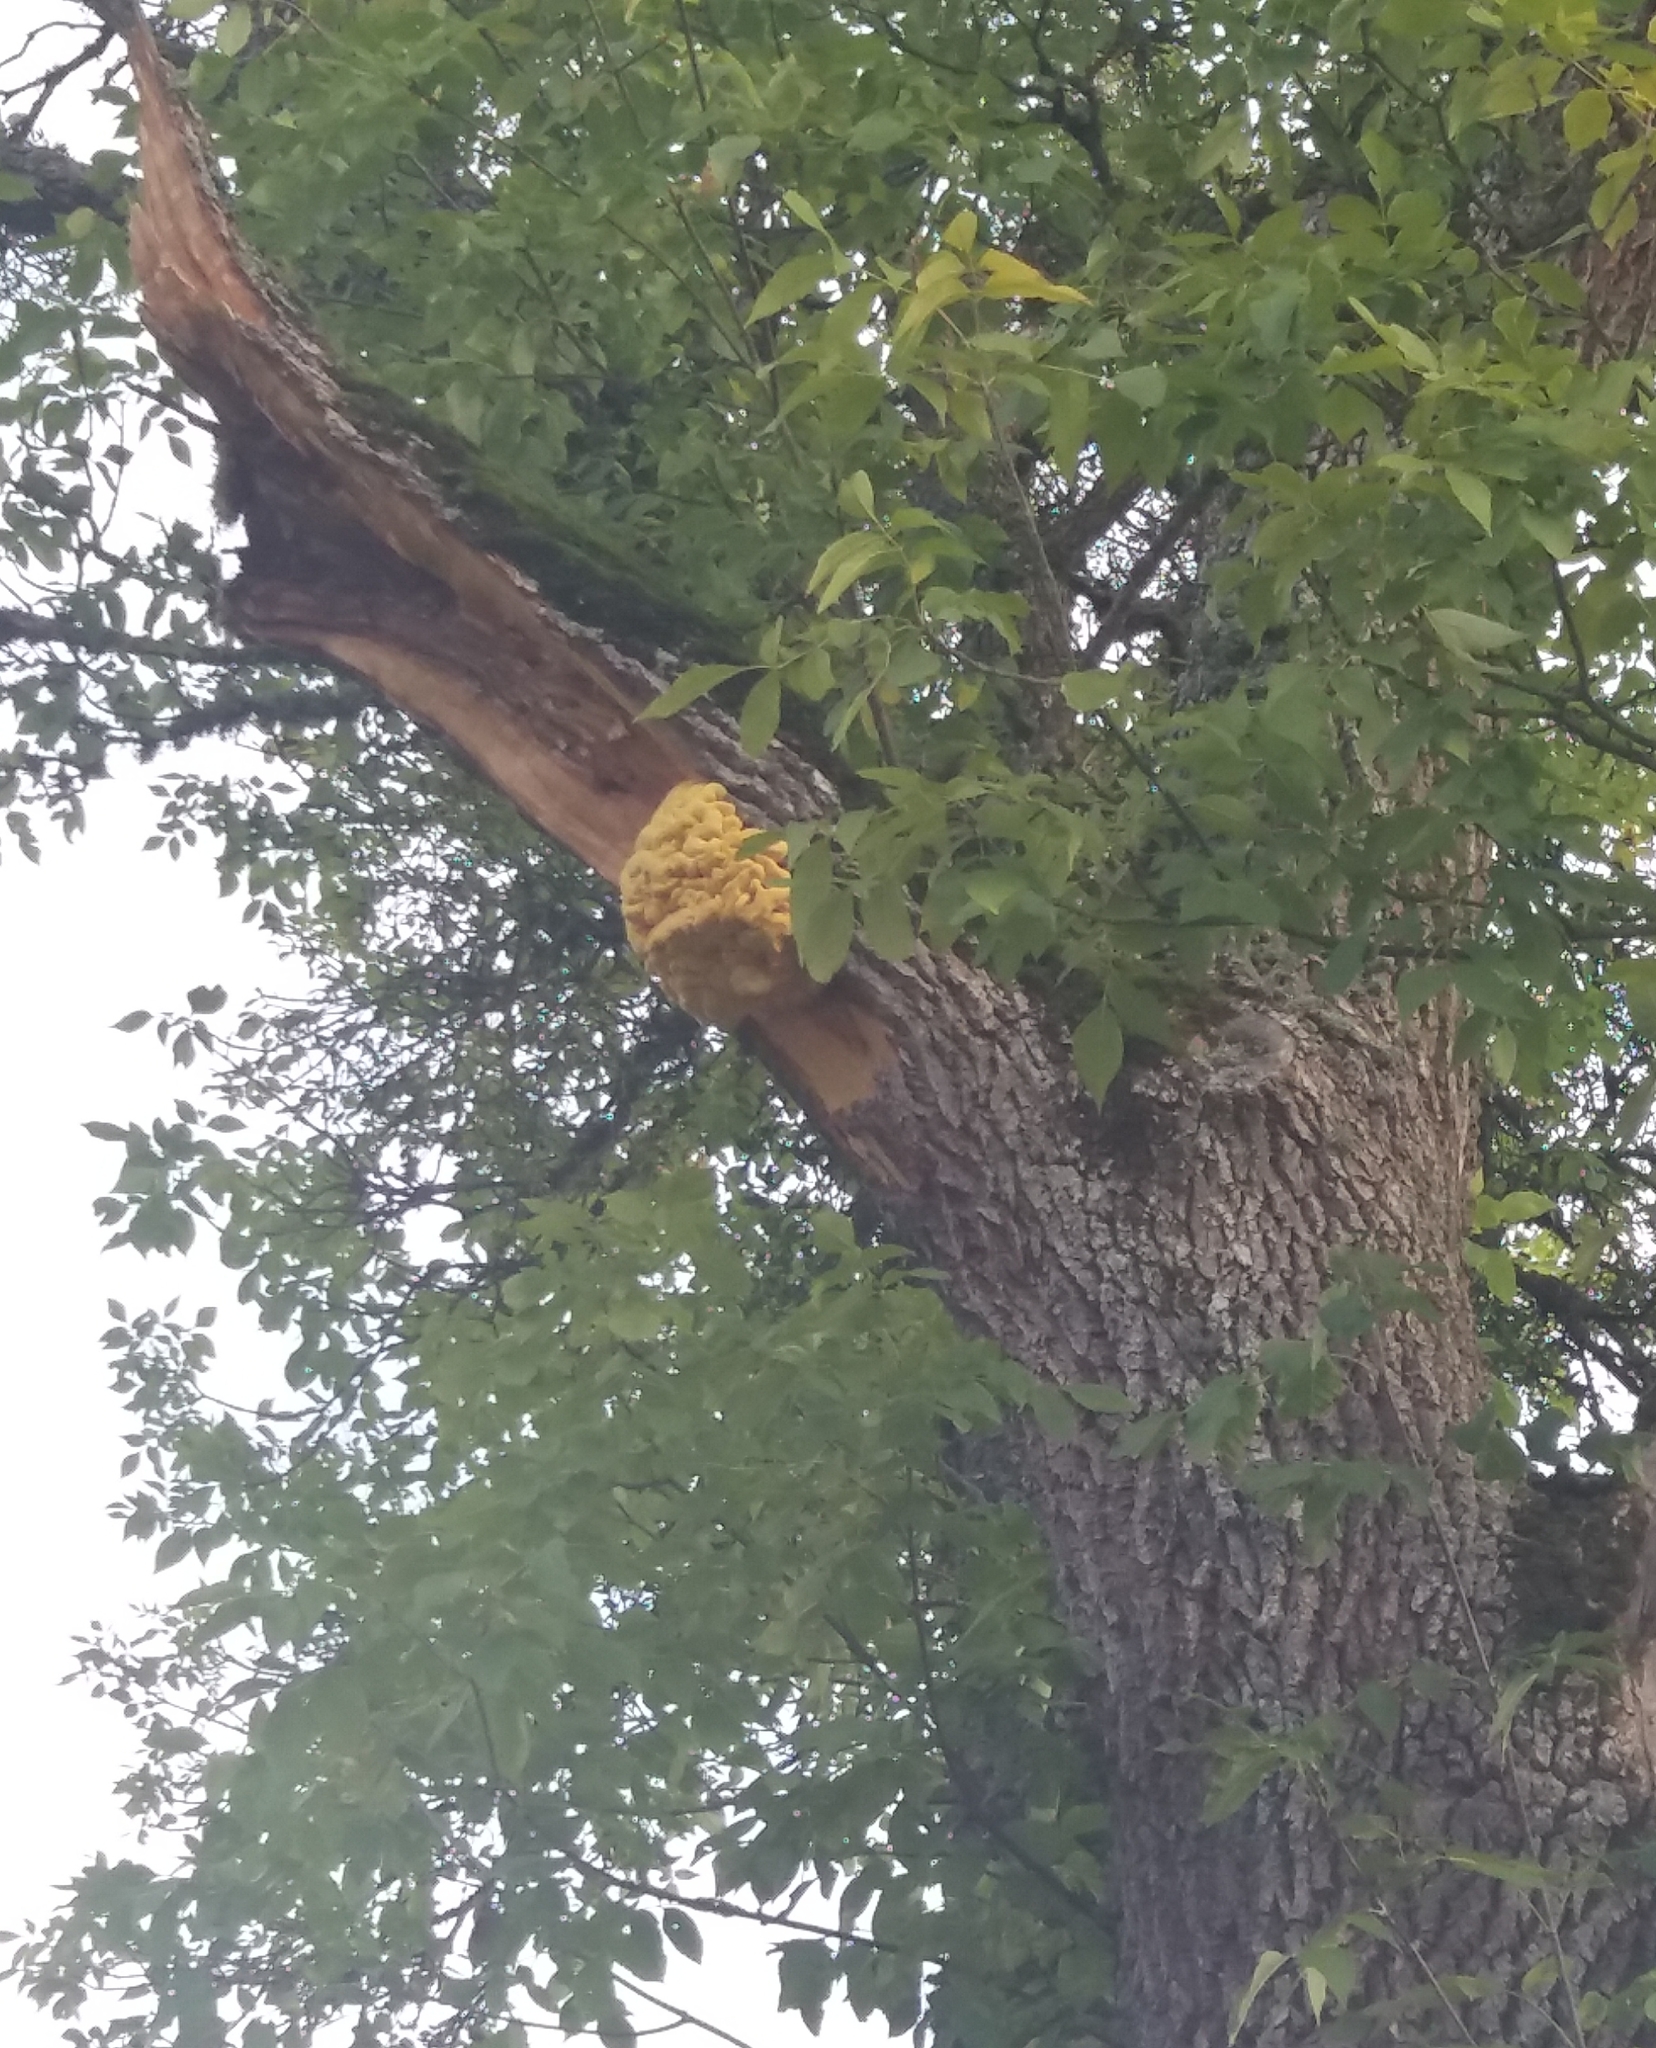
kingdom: Fungi
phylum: Basidiomycota
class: Agaricomycetes
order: Polyporales
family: Laetiporaceae
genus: Laetiporus
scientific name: Laetiporus sulphureus
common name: Chicken of the woods
